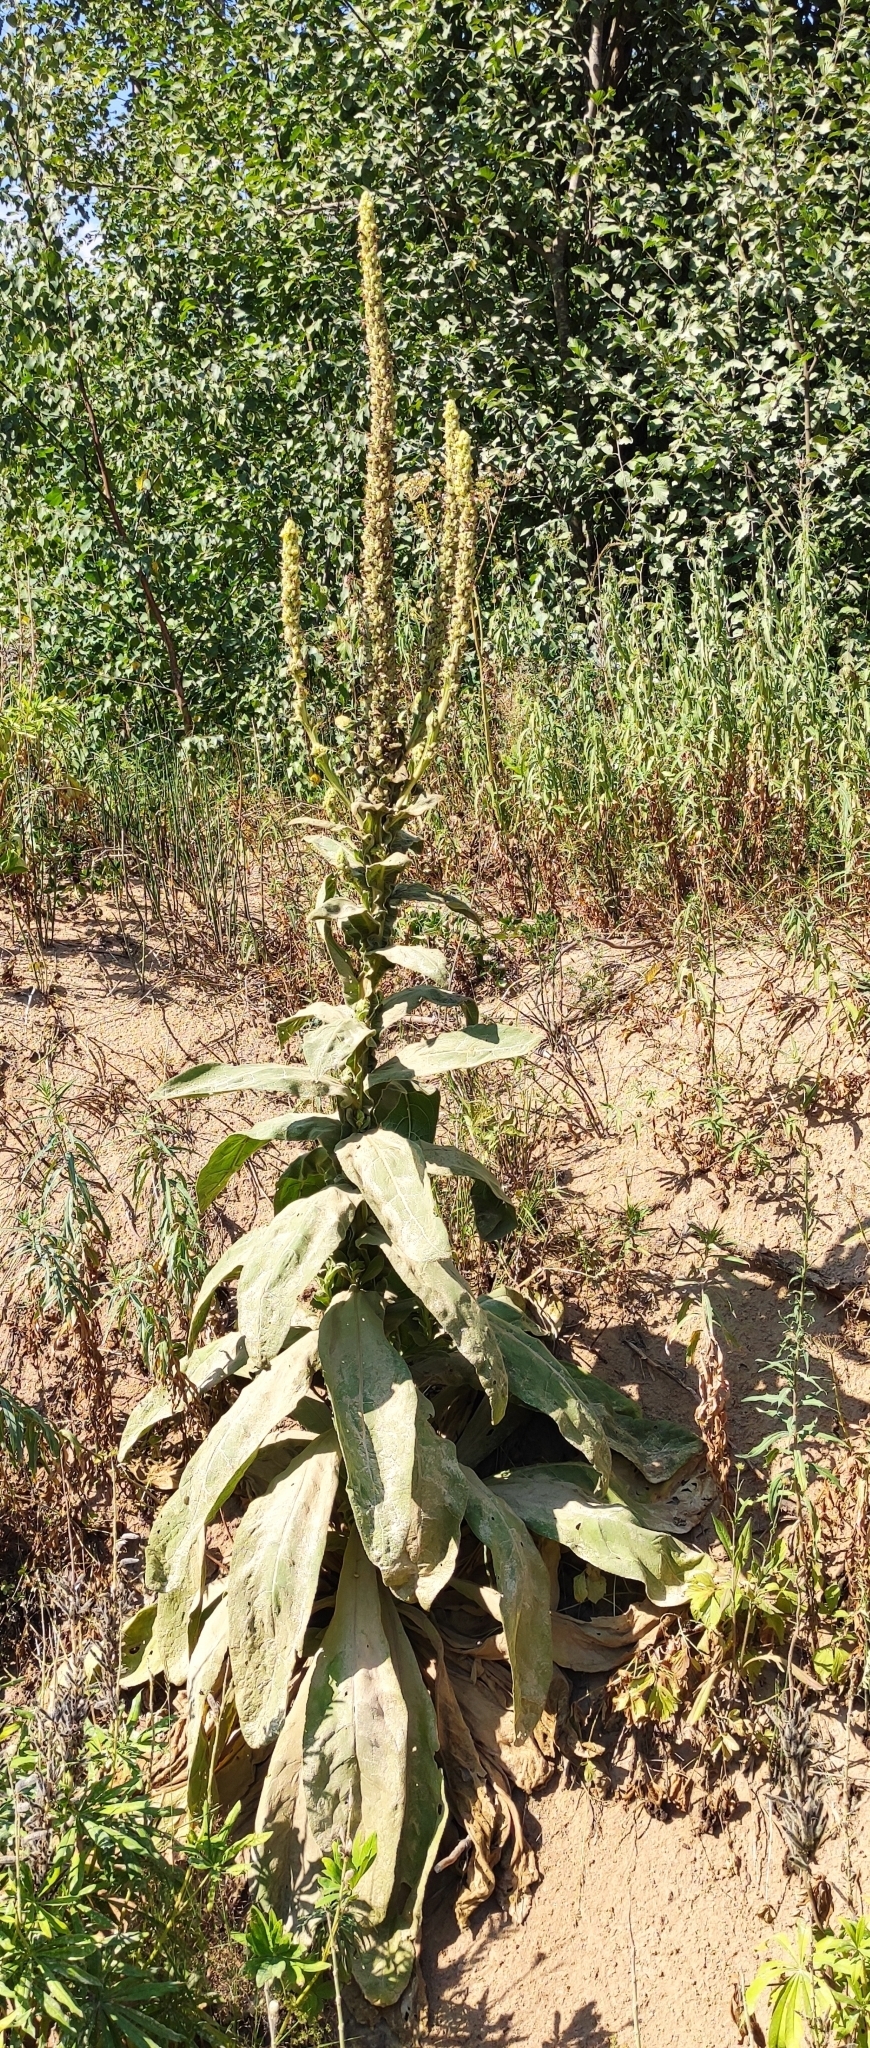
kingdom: Plantae
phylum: Tracheophyta
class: Magnoliopsida
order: Lamiales
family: Scrophulariaceae
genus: Verbascum
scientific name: Verbascum thapsus
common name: Common mullein
